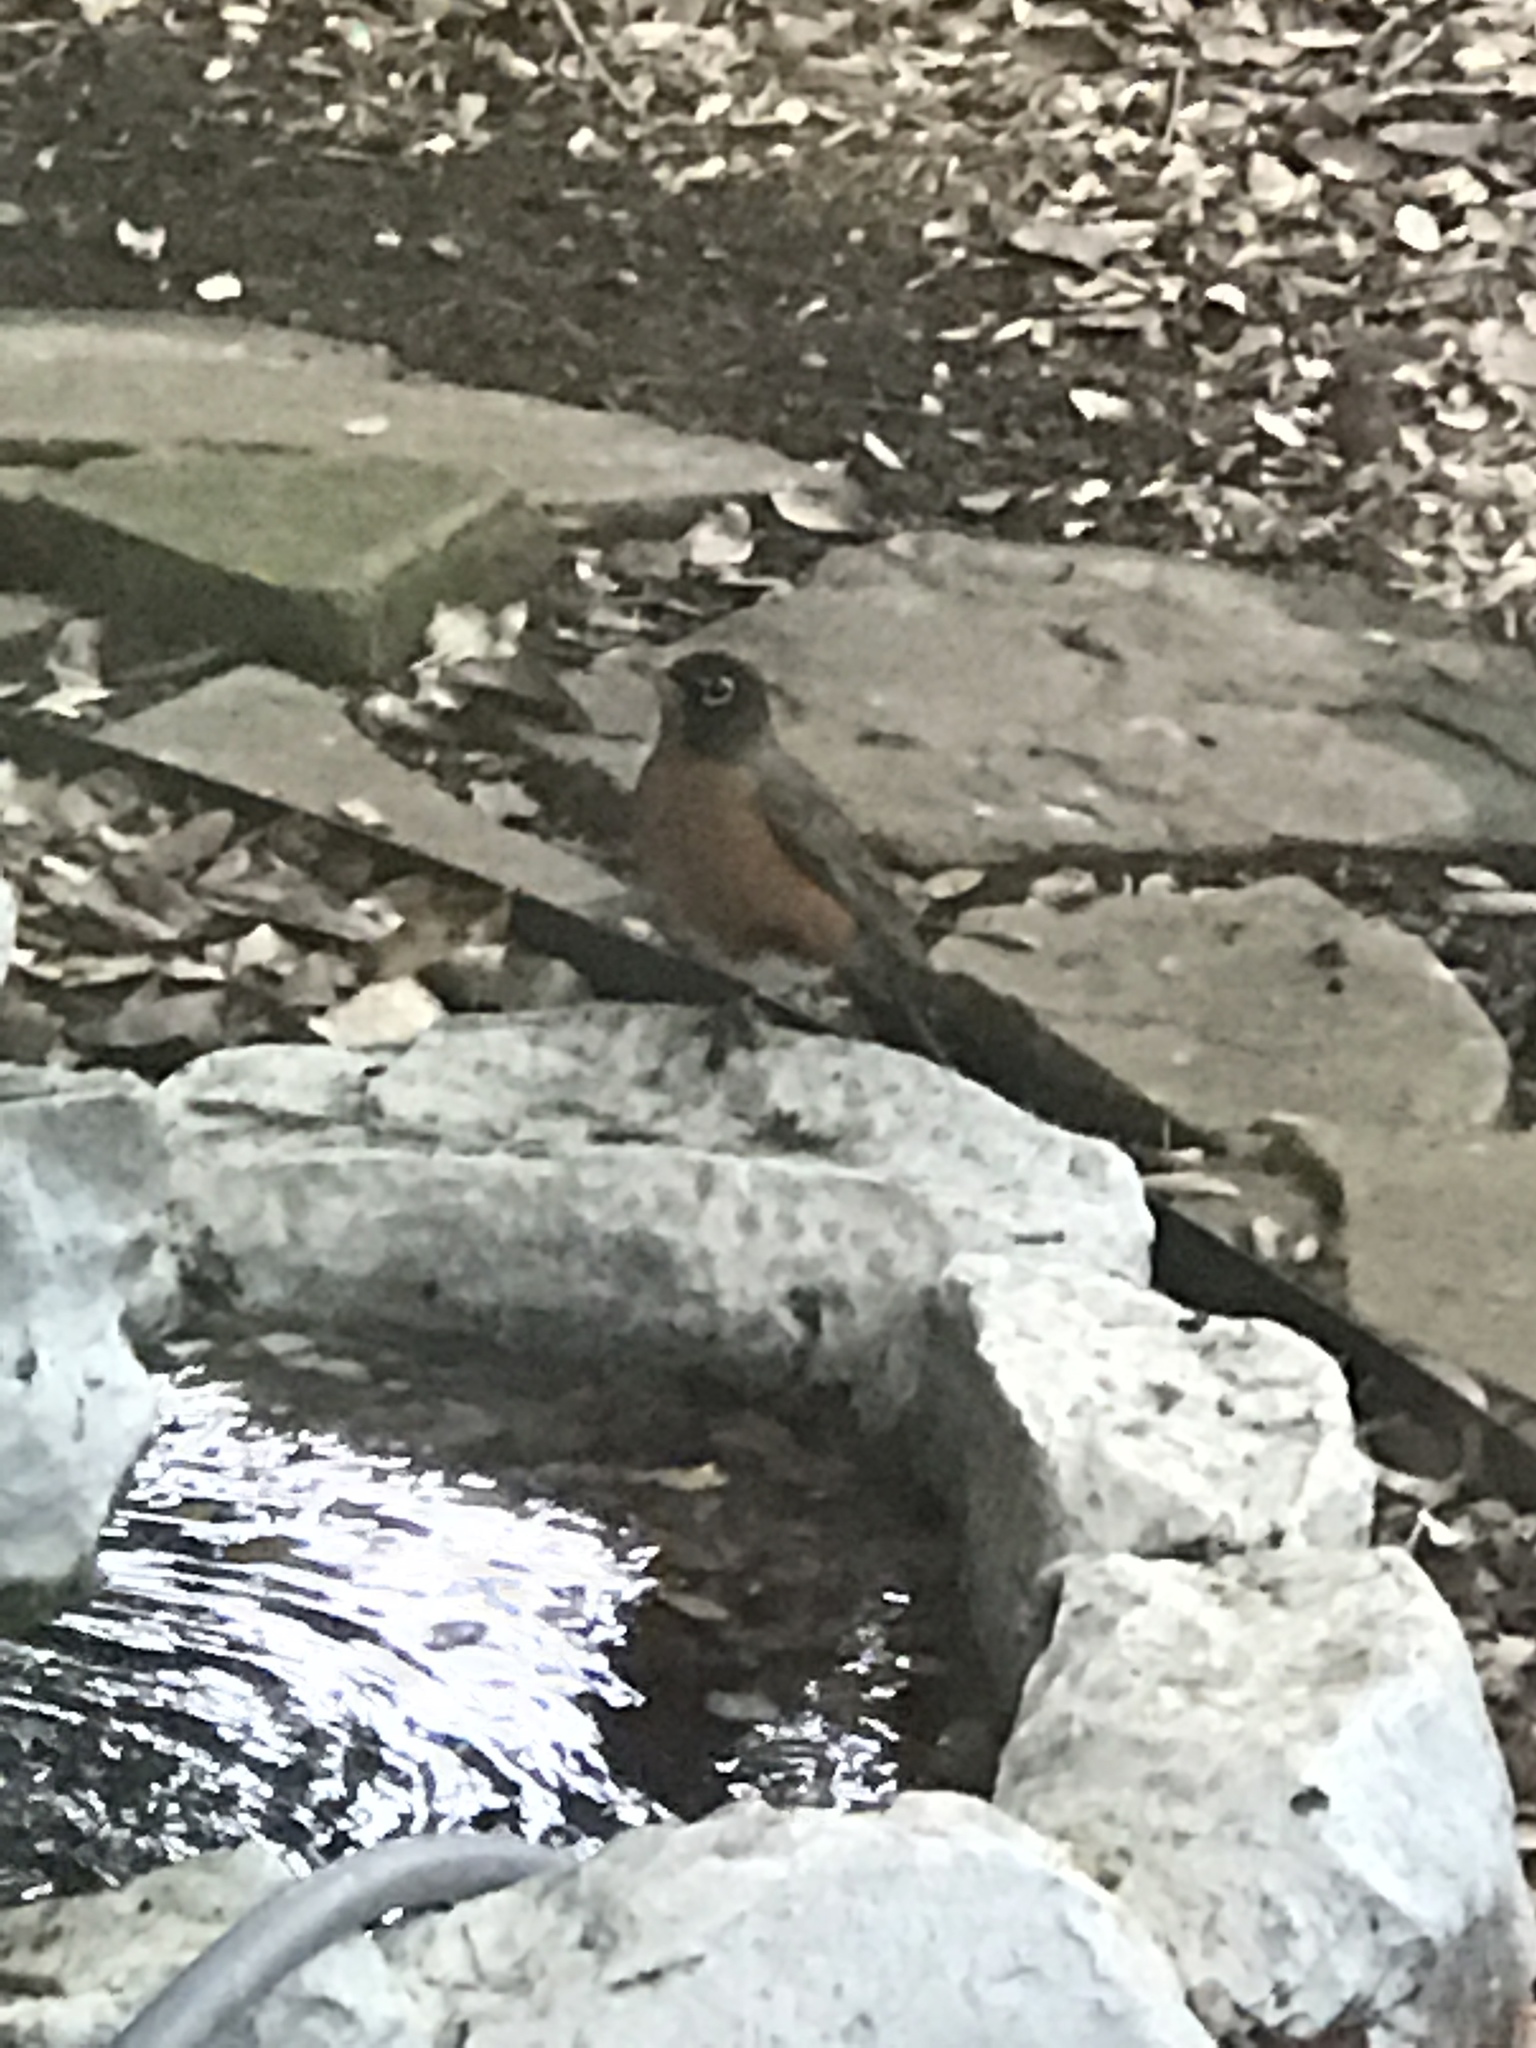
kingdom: Animalia
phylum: Chordata
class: Aves
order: Passeriformes
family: Turdidae
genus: Turdus
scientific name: Turdus migratorius
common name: American robin
